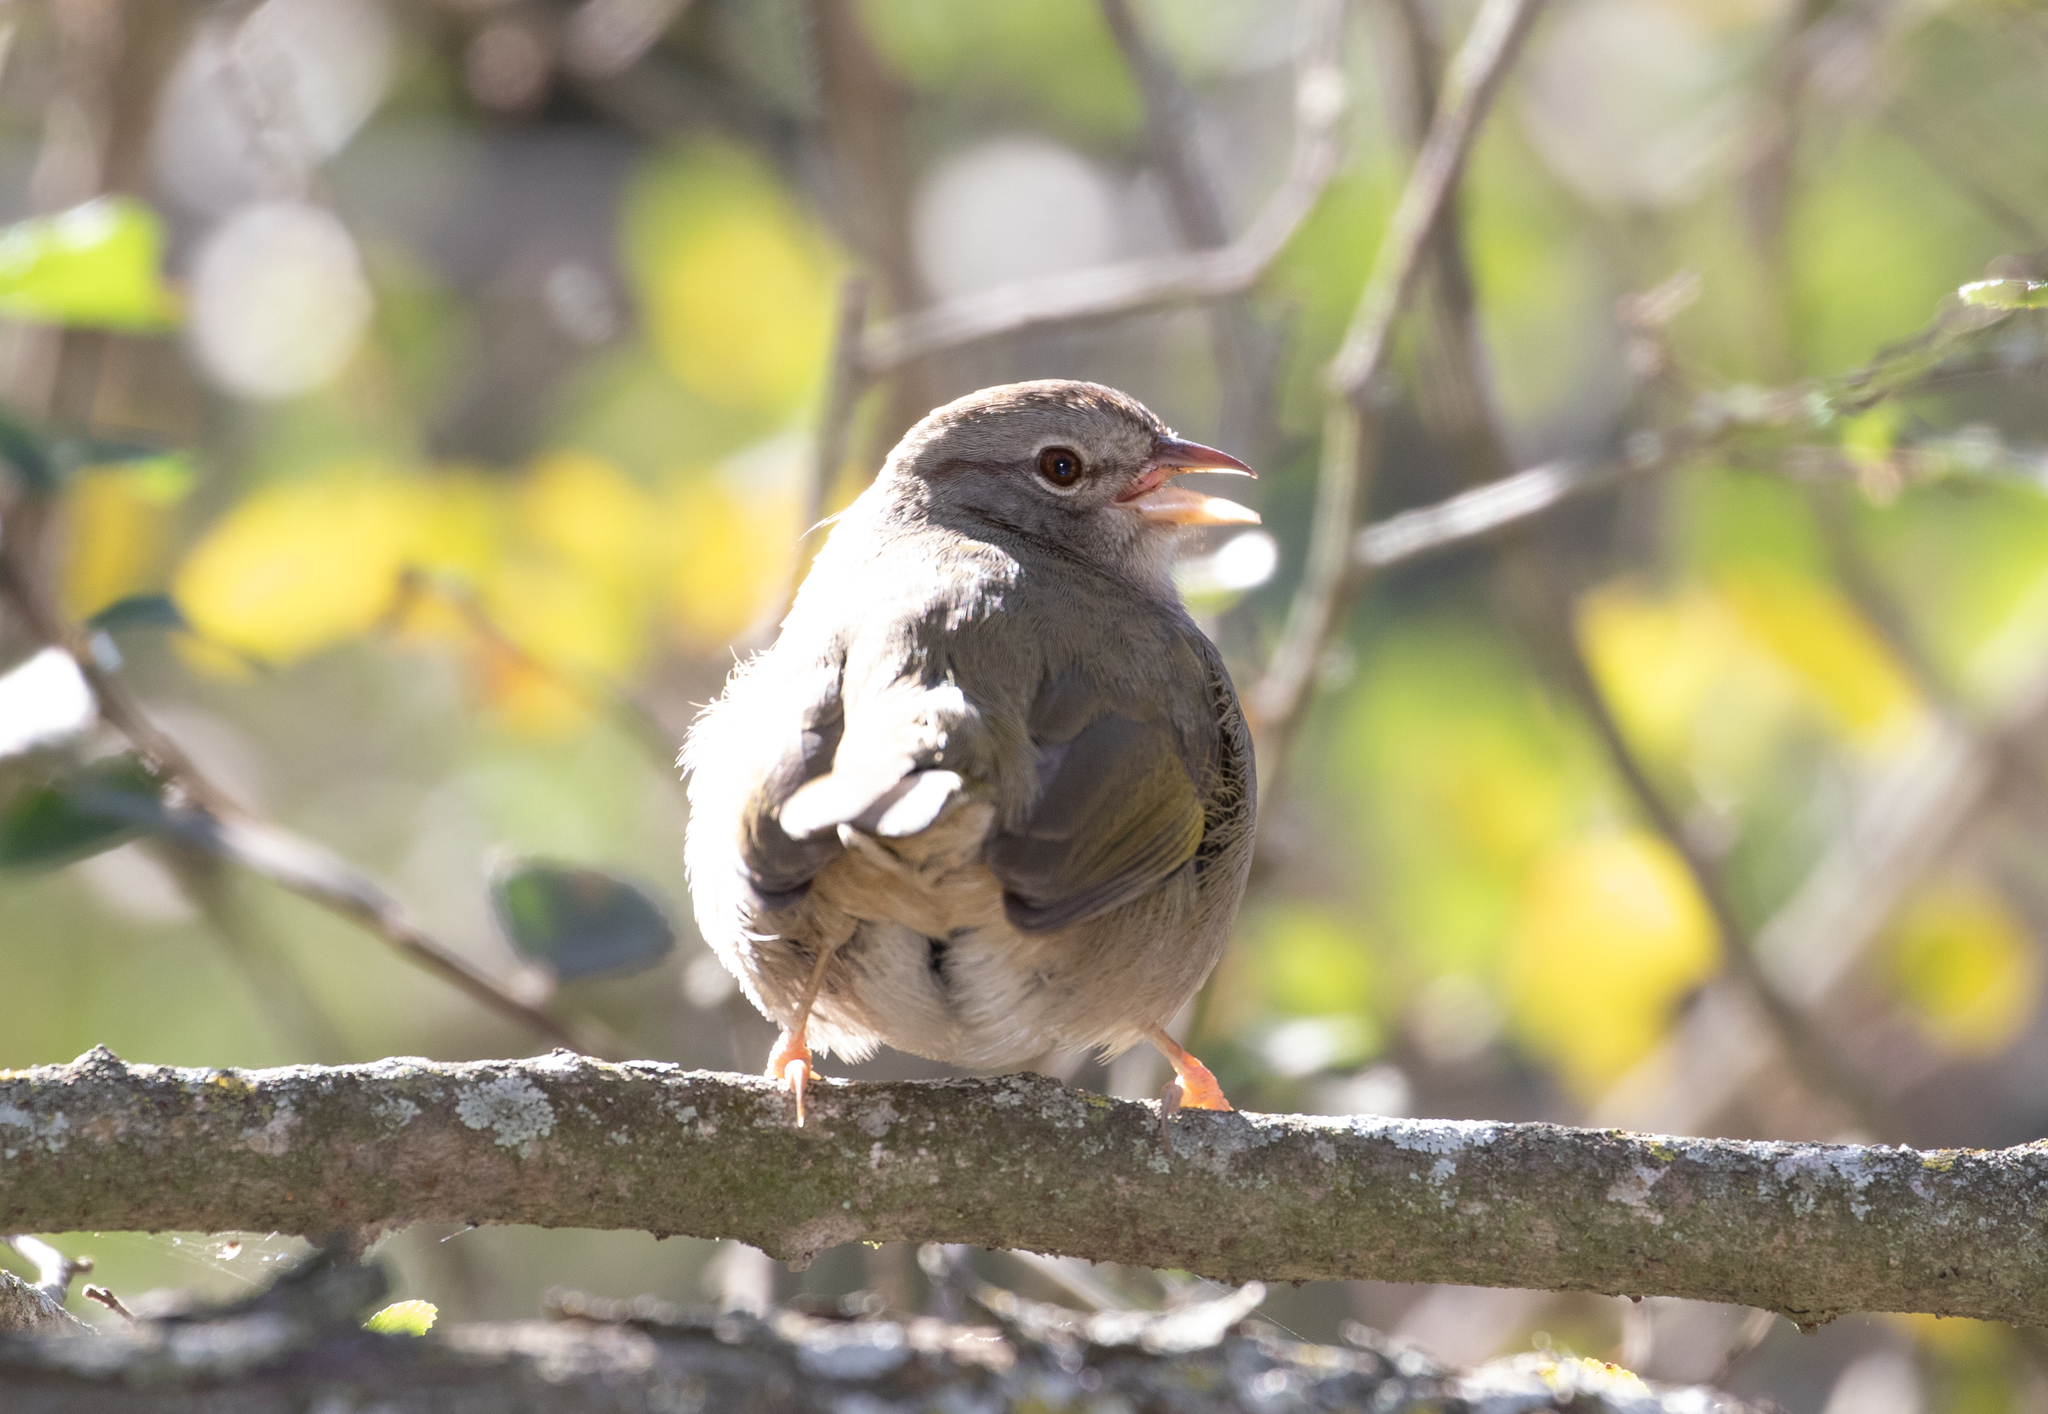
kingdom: Animalia
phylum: Chordata
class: Aves
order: Passeriformes
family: Passerellidae
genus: Arremonops
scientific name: Arremonops rufivirgatus
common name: Olive sparrow
